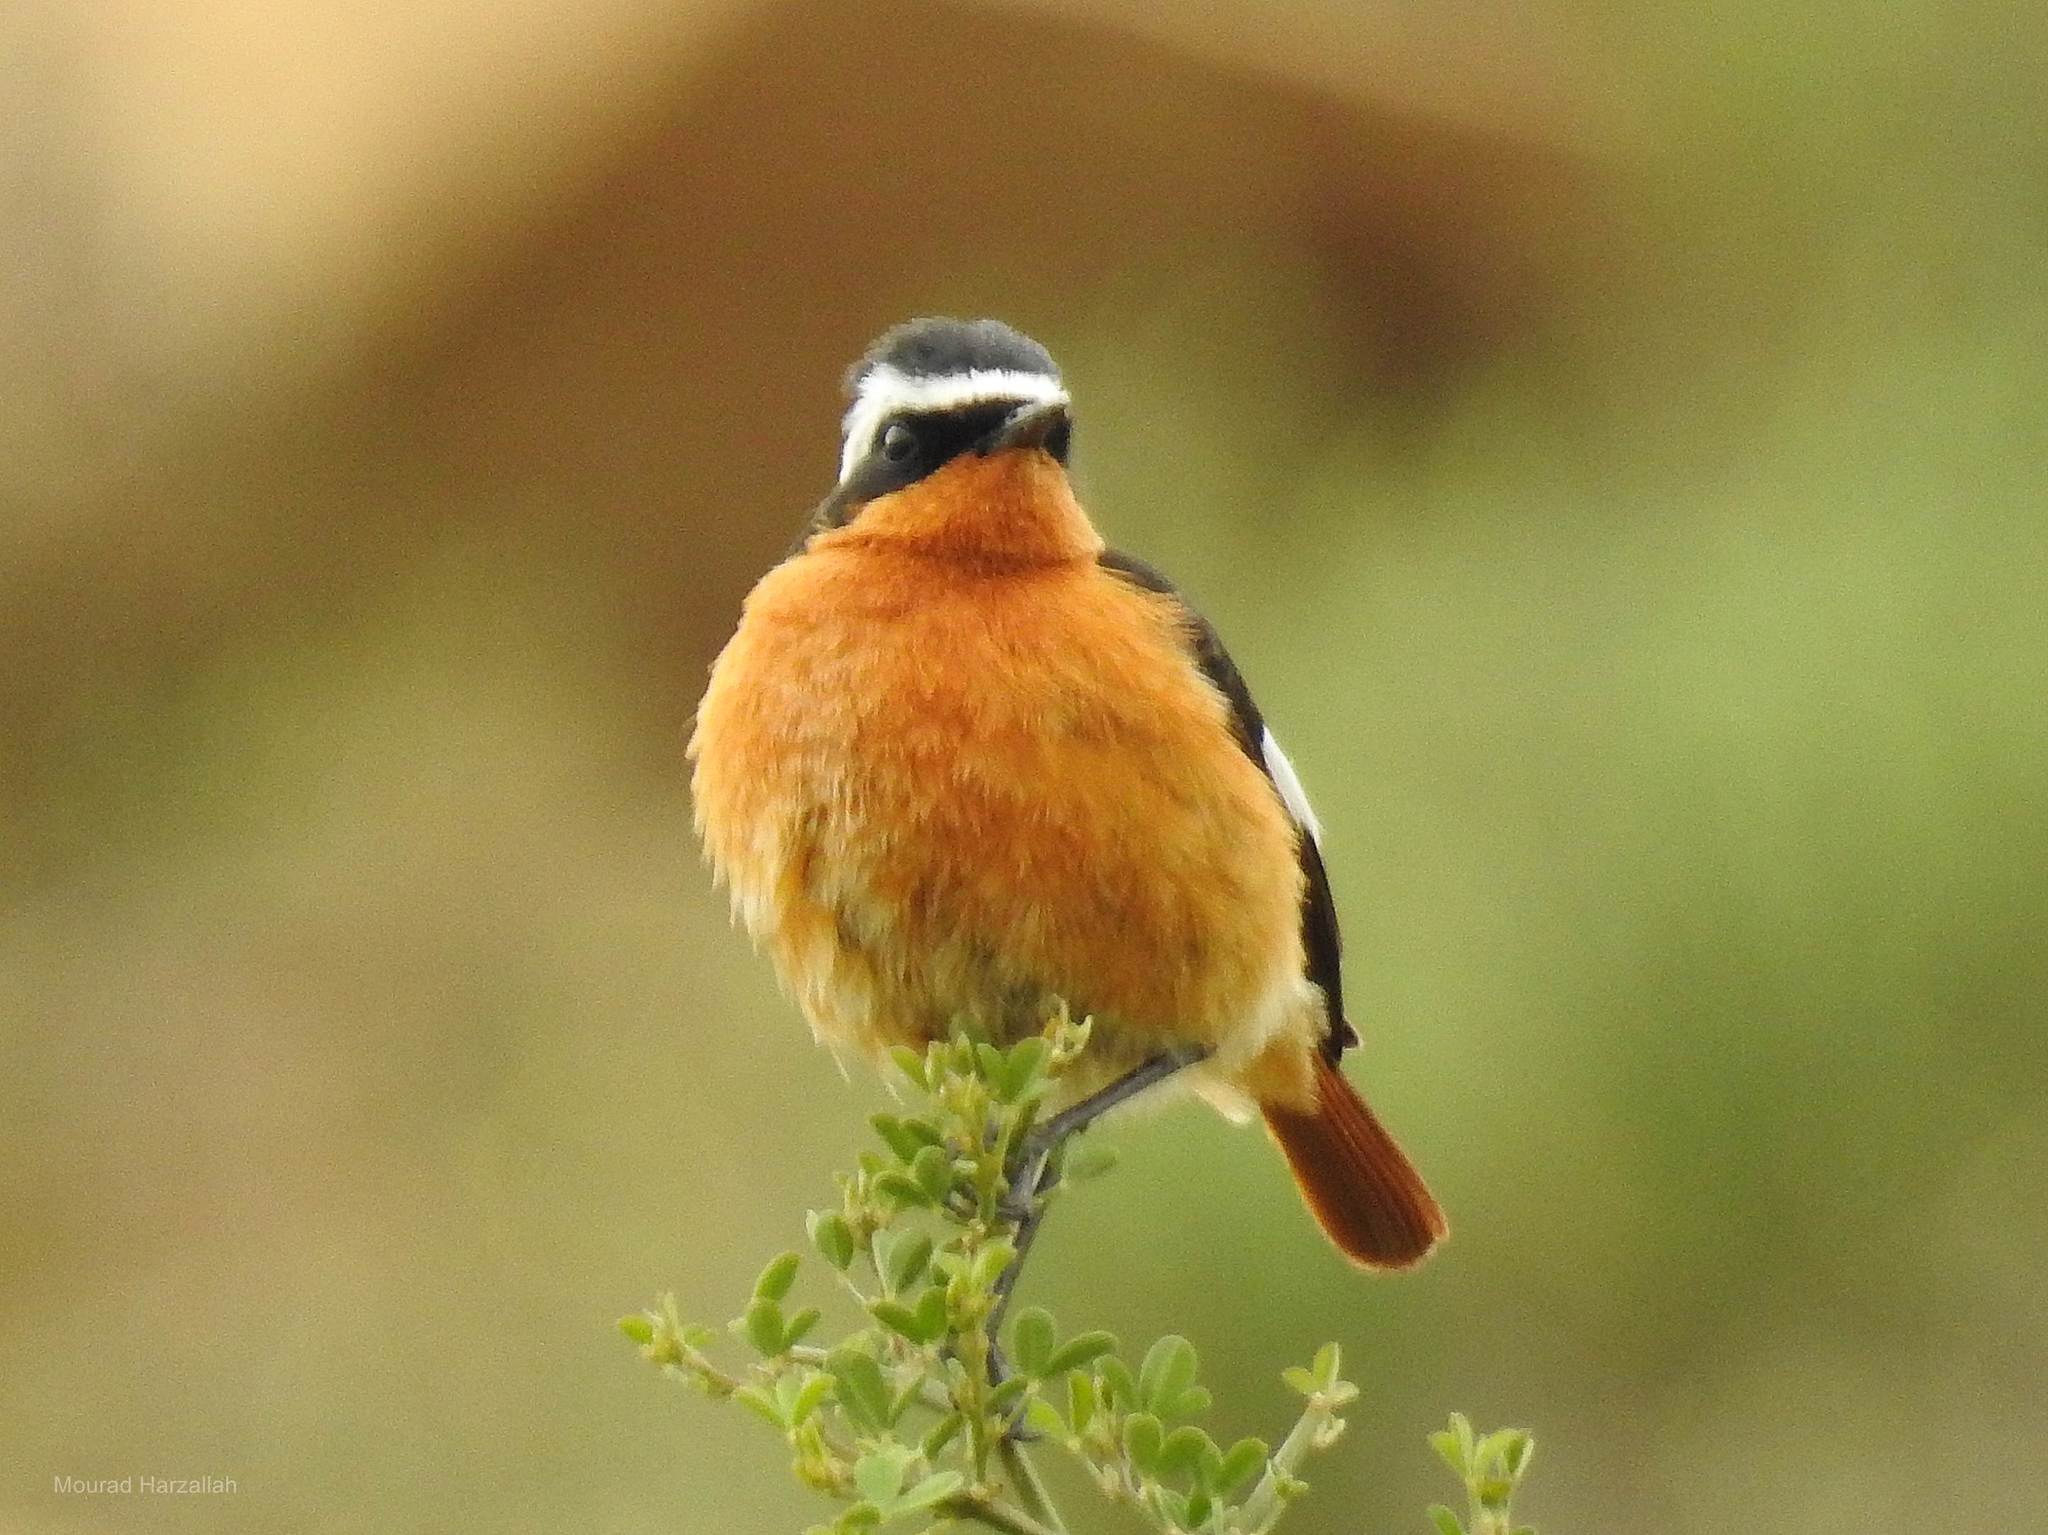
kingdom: Animalia
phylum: Chordata
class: Aves
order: Passeriformes
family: Muscicapidae
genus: Phoenicurus
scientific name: Phoenicurus moussieri
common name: Moussier's redstart
